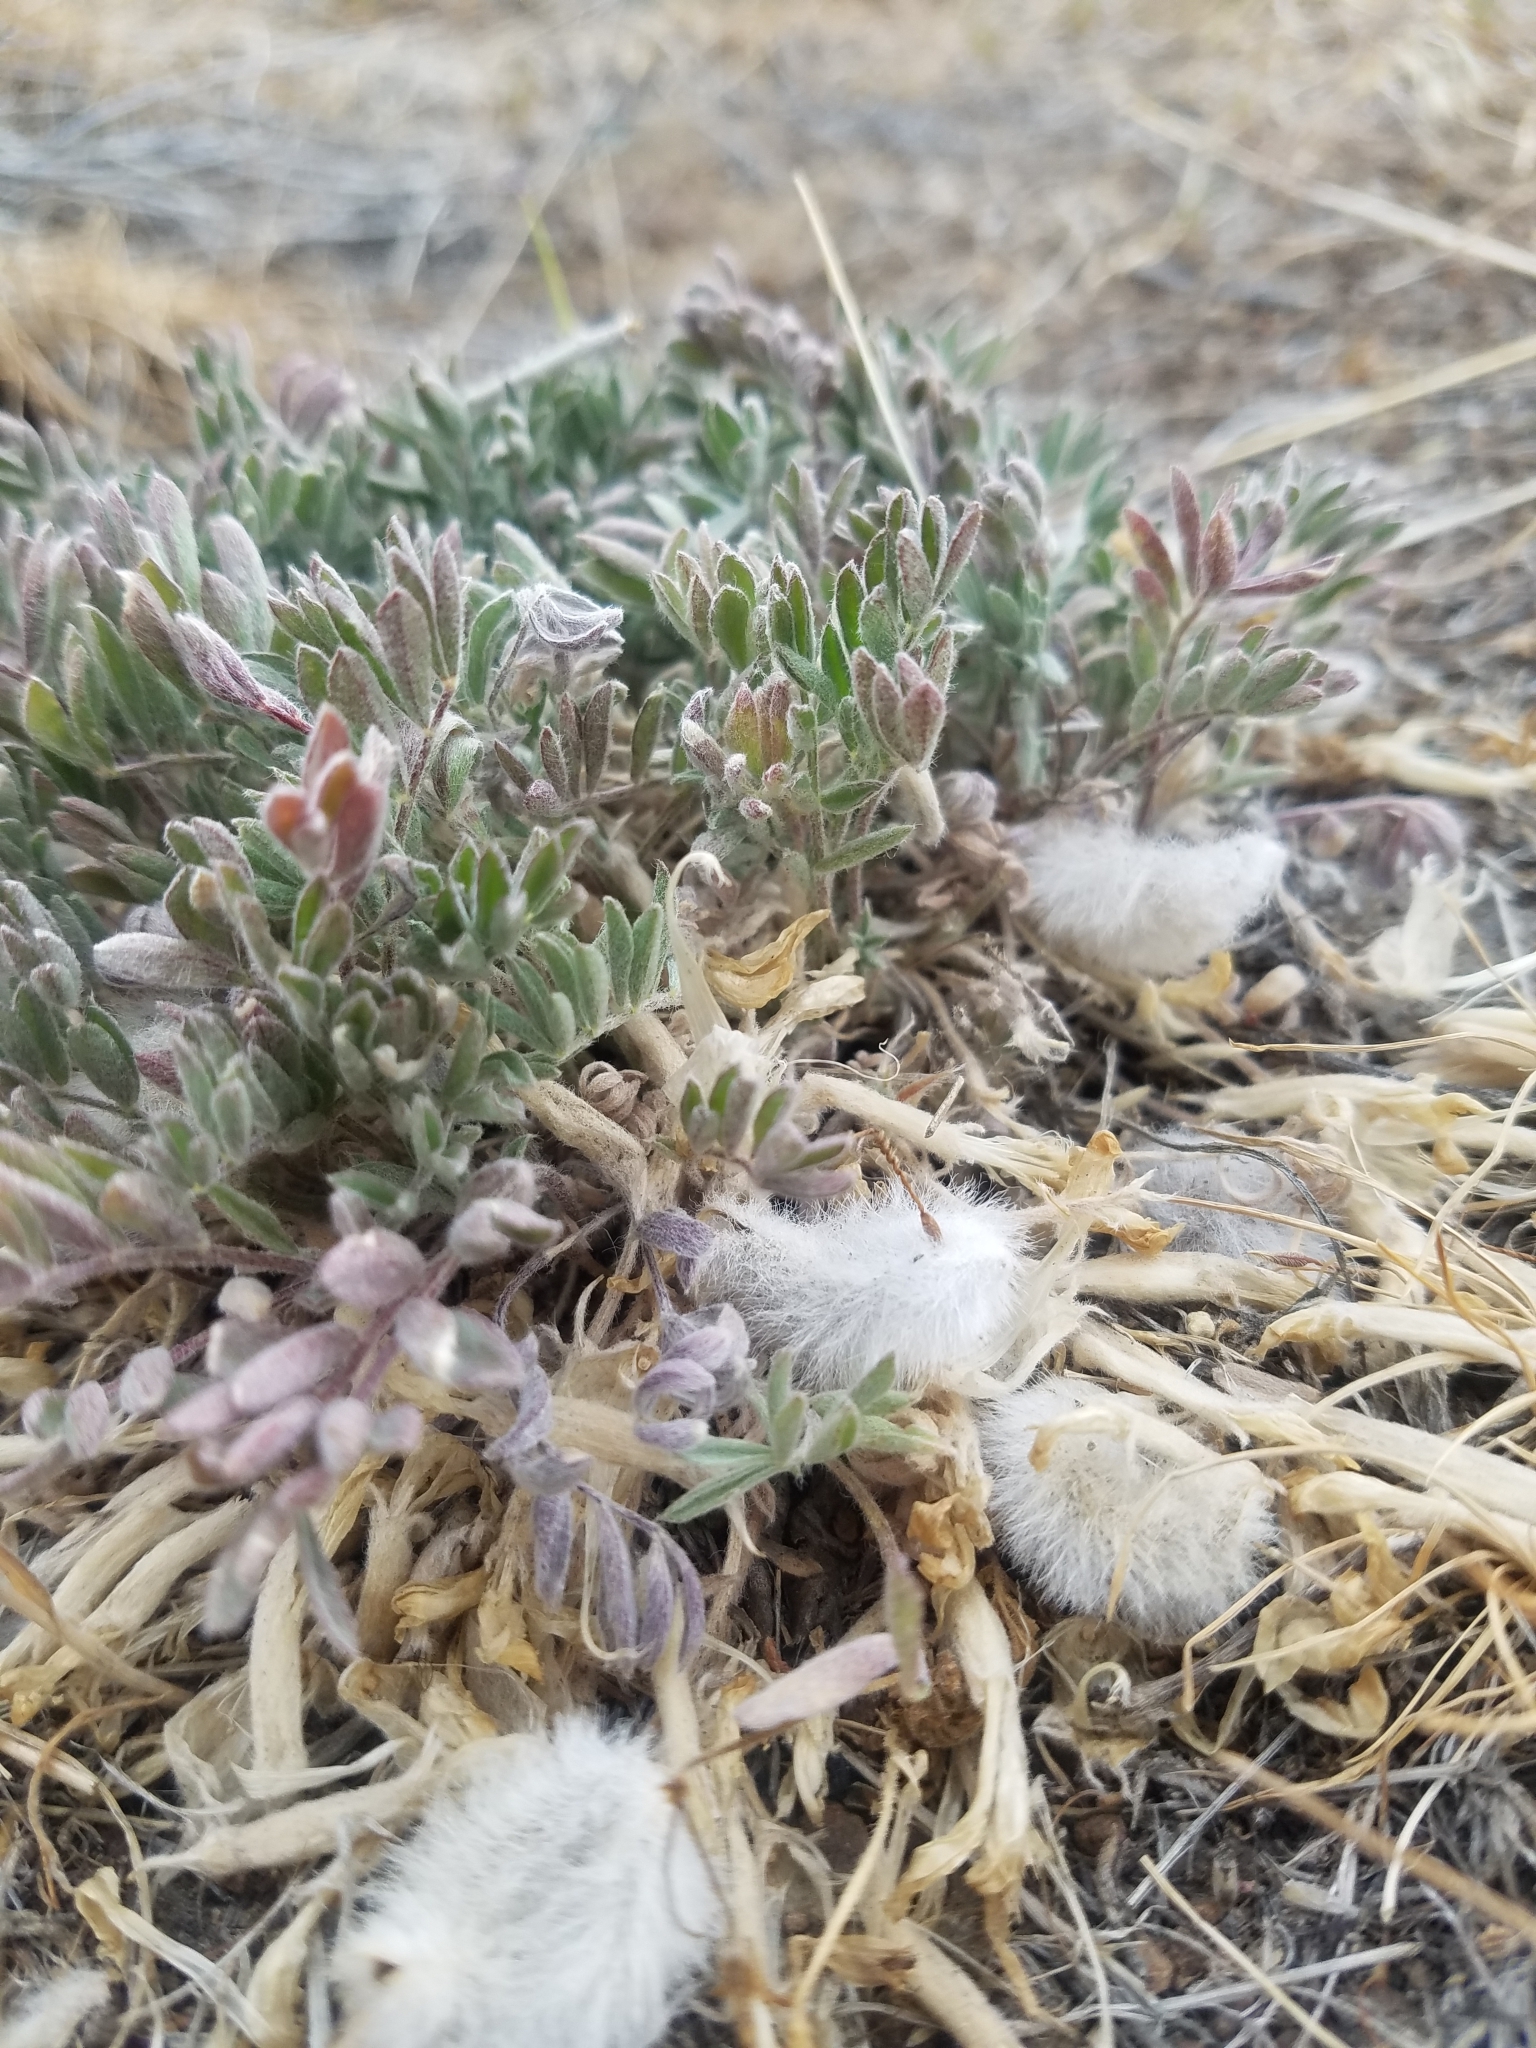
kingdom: Plantae
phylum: Tracheophyta
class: Magnoliopsida
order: Fabales
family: Fabaceae
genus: Astragalus
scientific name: Astragalus purshii
